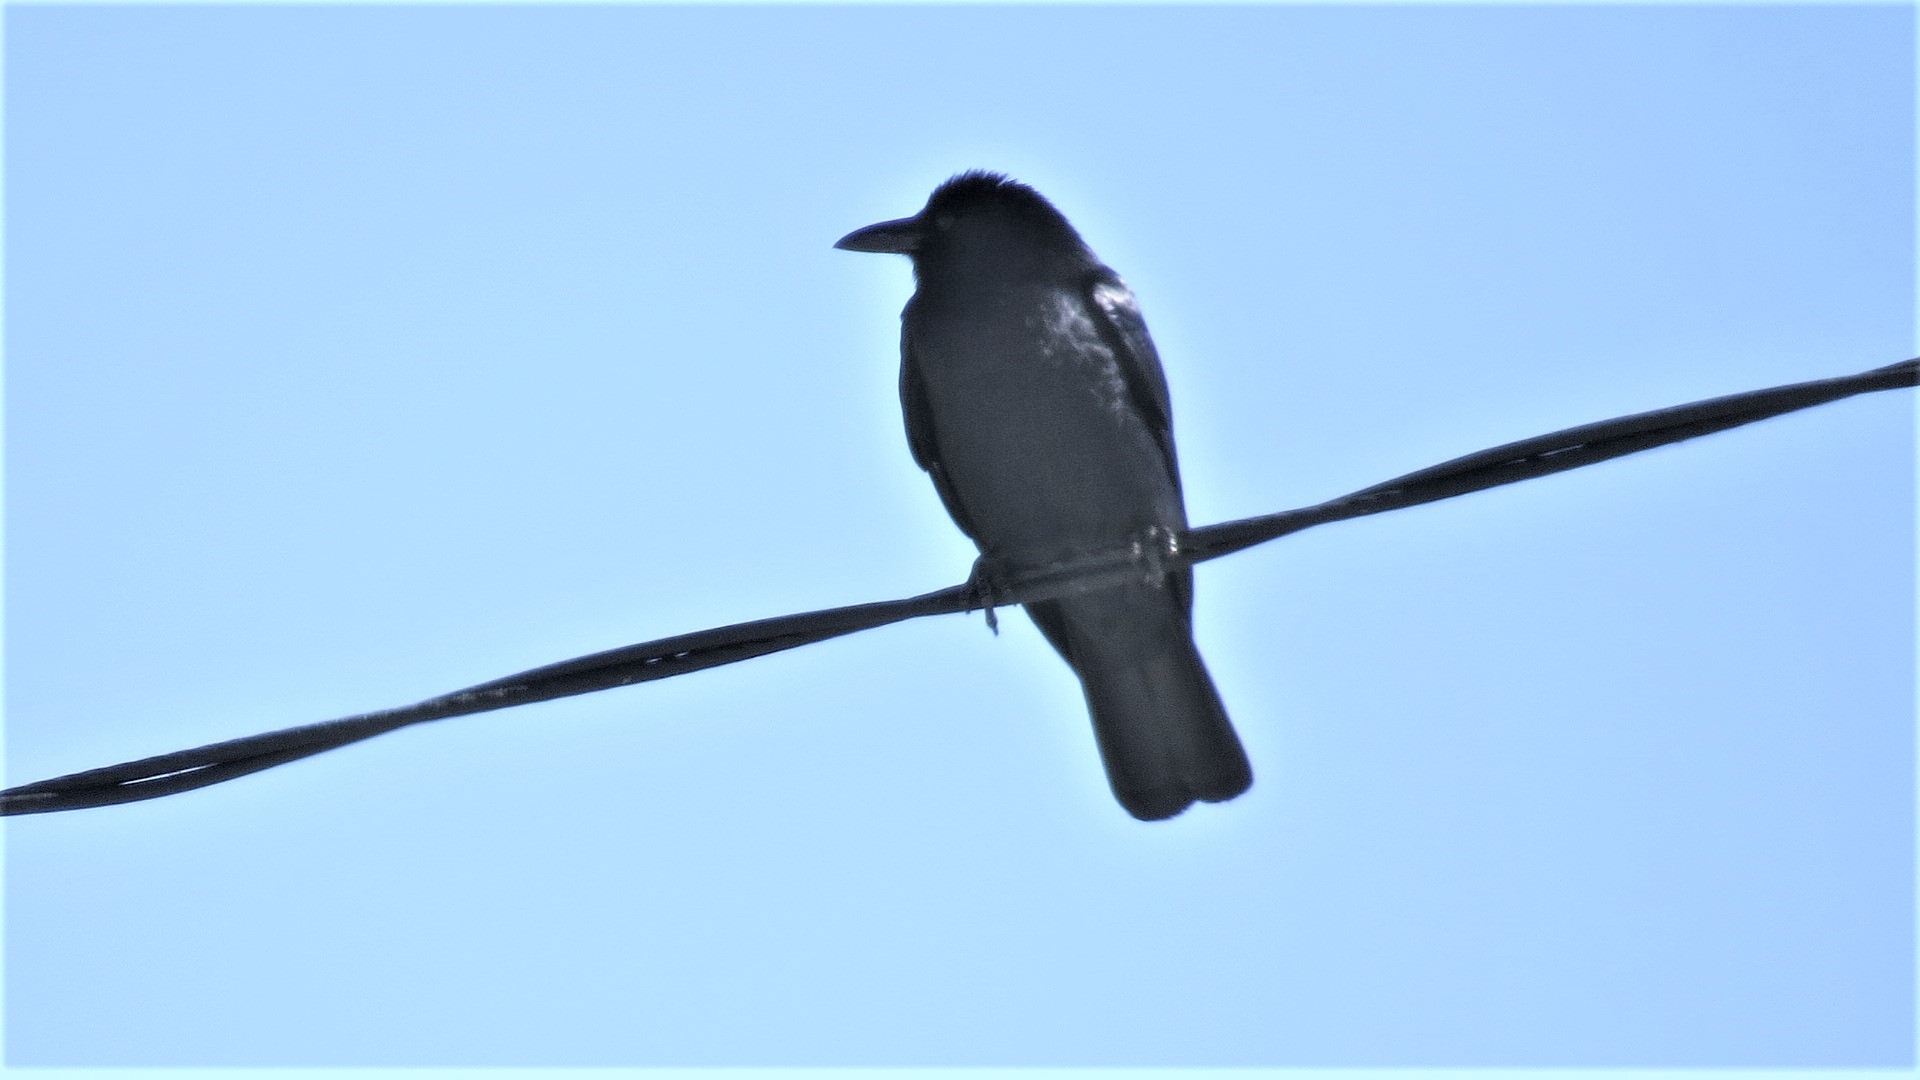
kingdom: Animalia
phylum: Chordata
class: Aves
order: Passeriformes
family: Corvidae
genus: Corvus
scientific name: Corvus imparatus
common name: Tamaulipas crow
